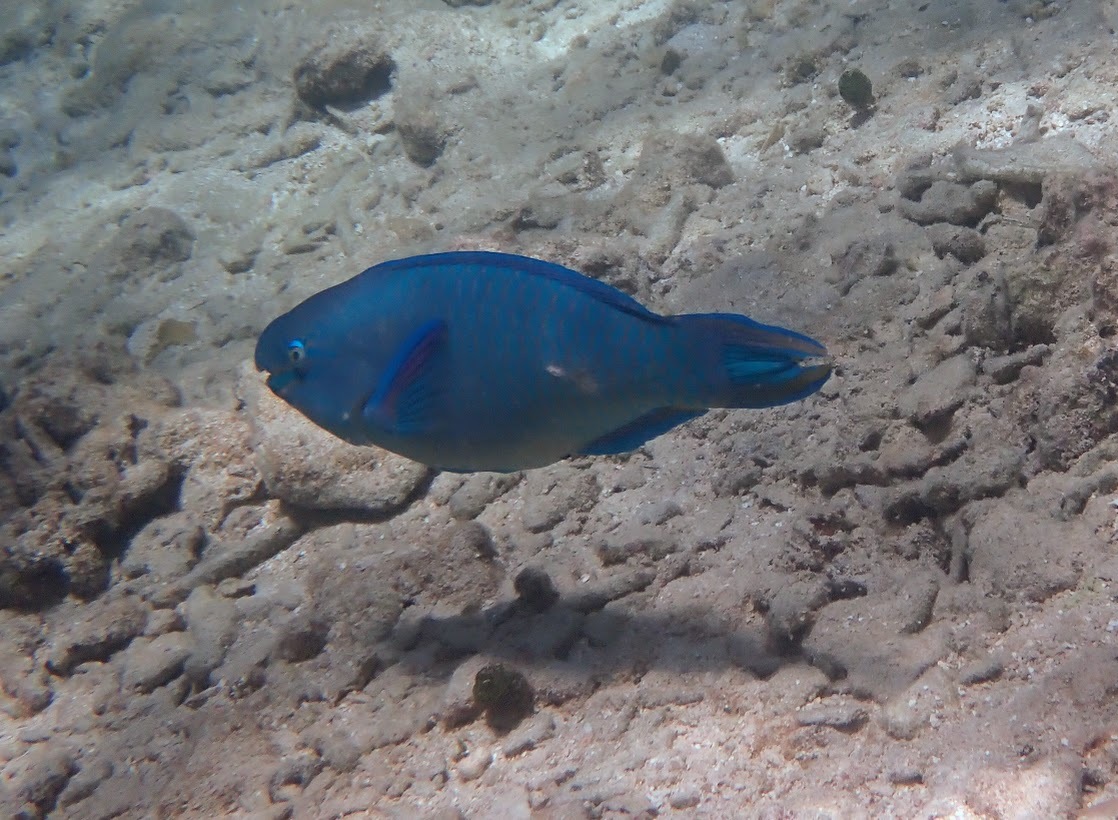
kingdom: Animalia
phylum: Chordata
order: Perciformes
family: Scaridae
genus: Scarus
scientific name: Scarus vetula
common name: Queen parrotfish
